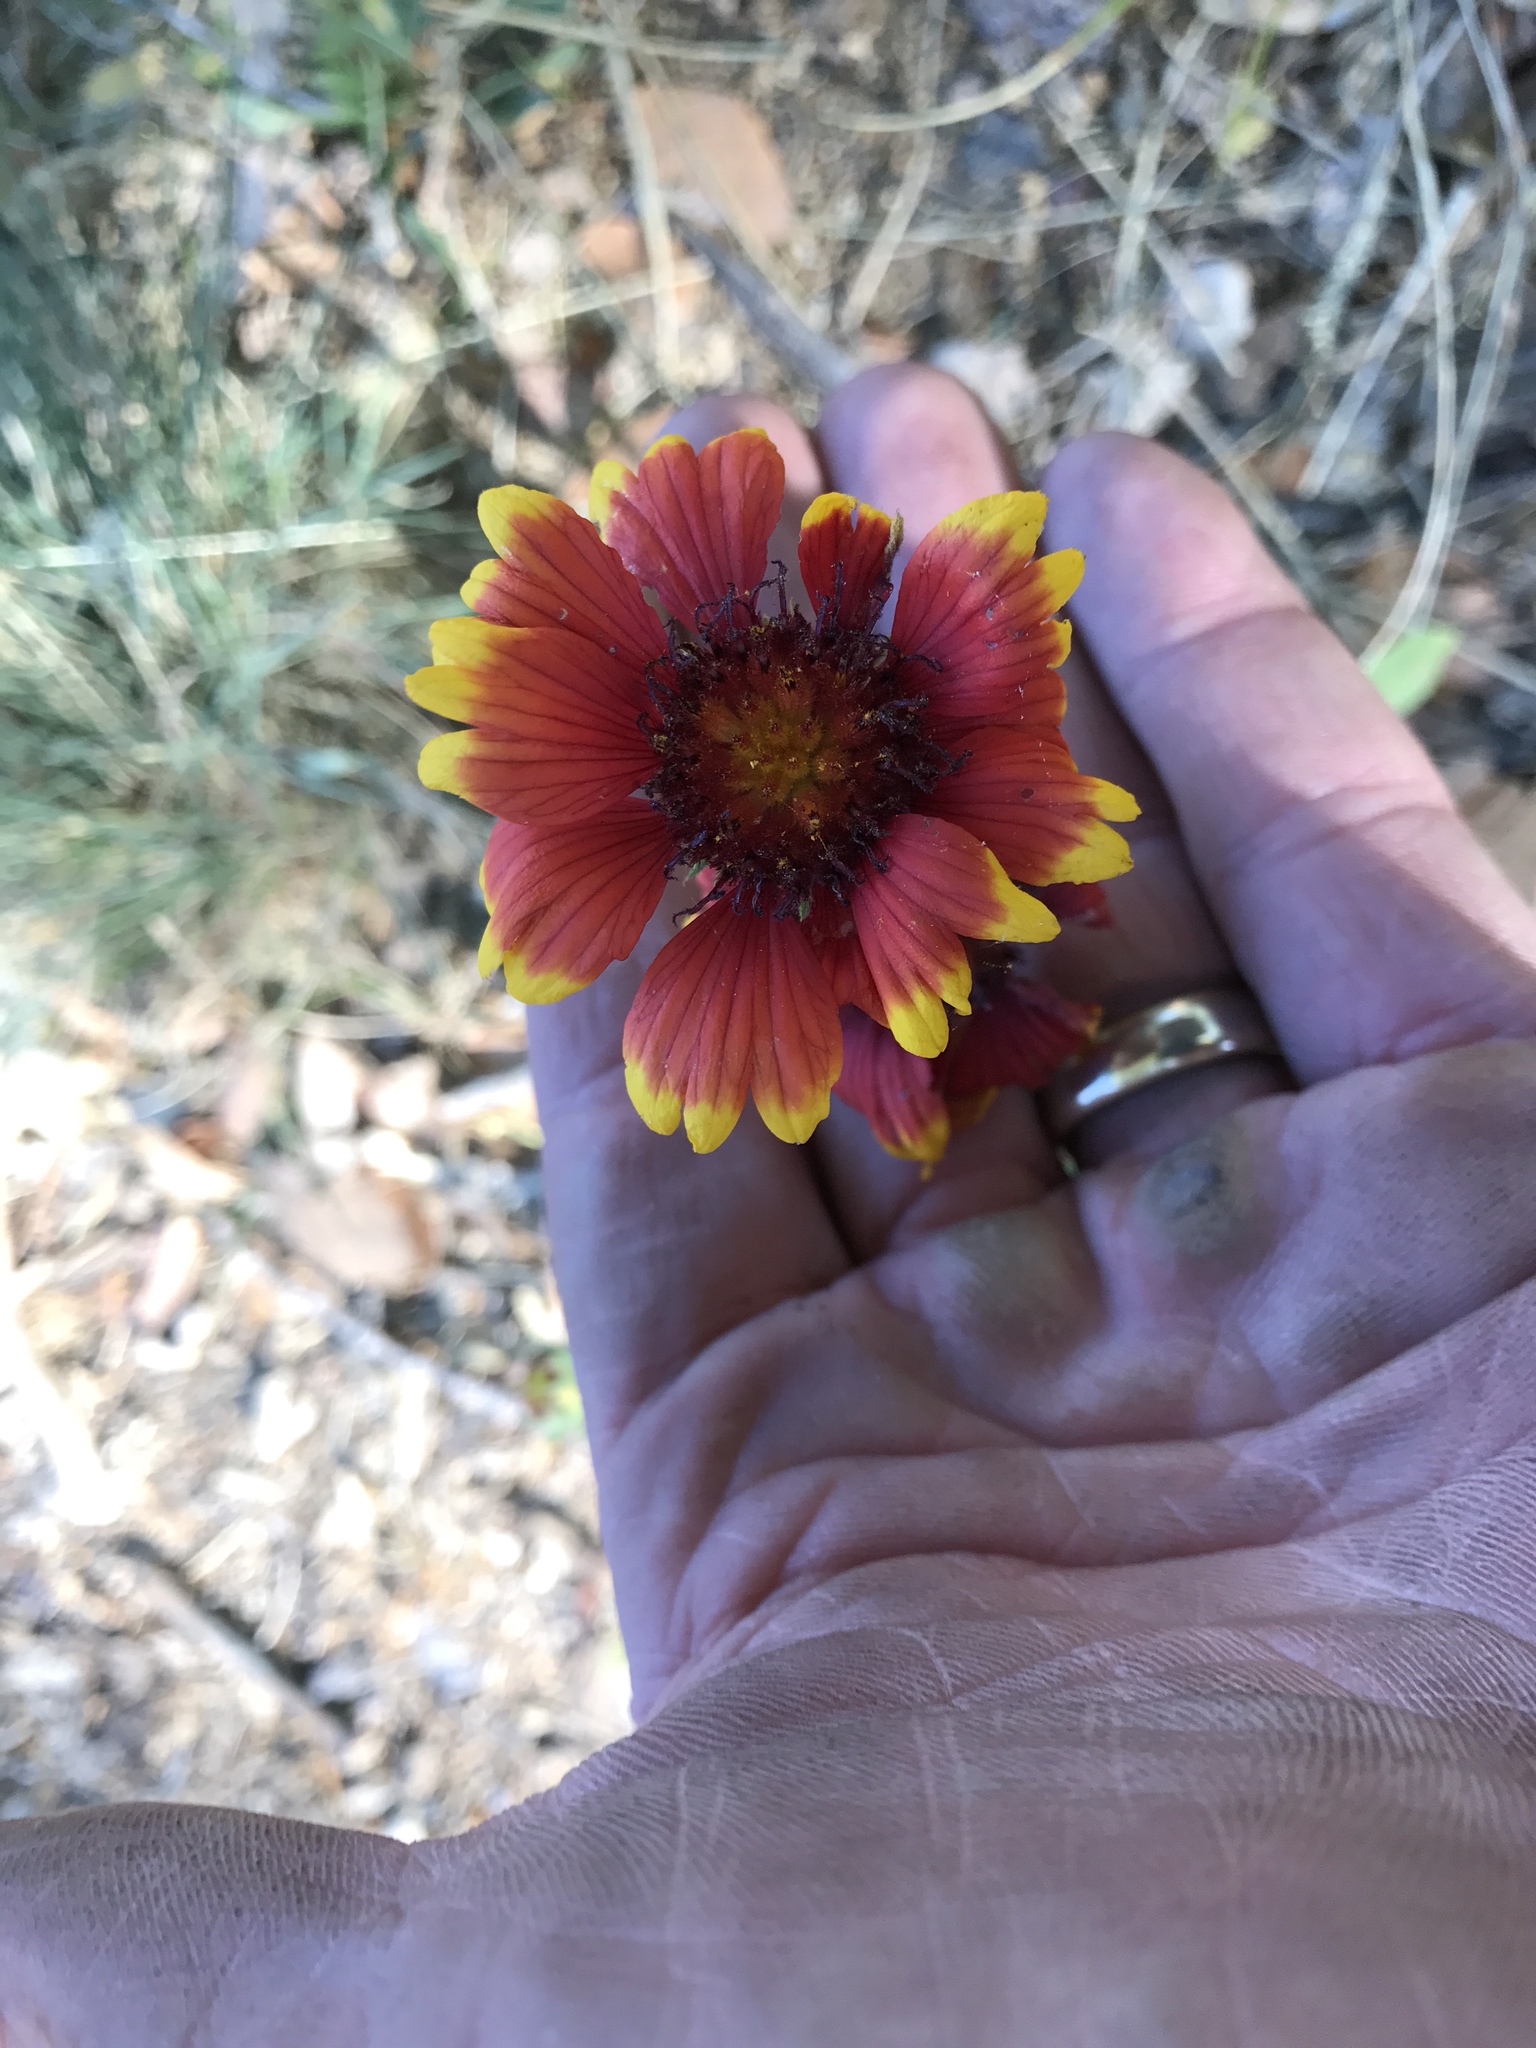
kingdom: Plantae
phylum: Tracheophyta
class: Magnoliopsida
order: Asterales
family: Asteraceae
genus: Gaillardia
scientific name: Gaillardia pulchella
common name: Firewheel
